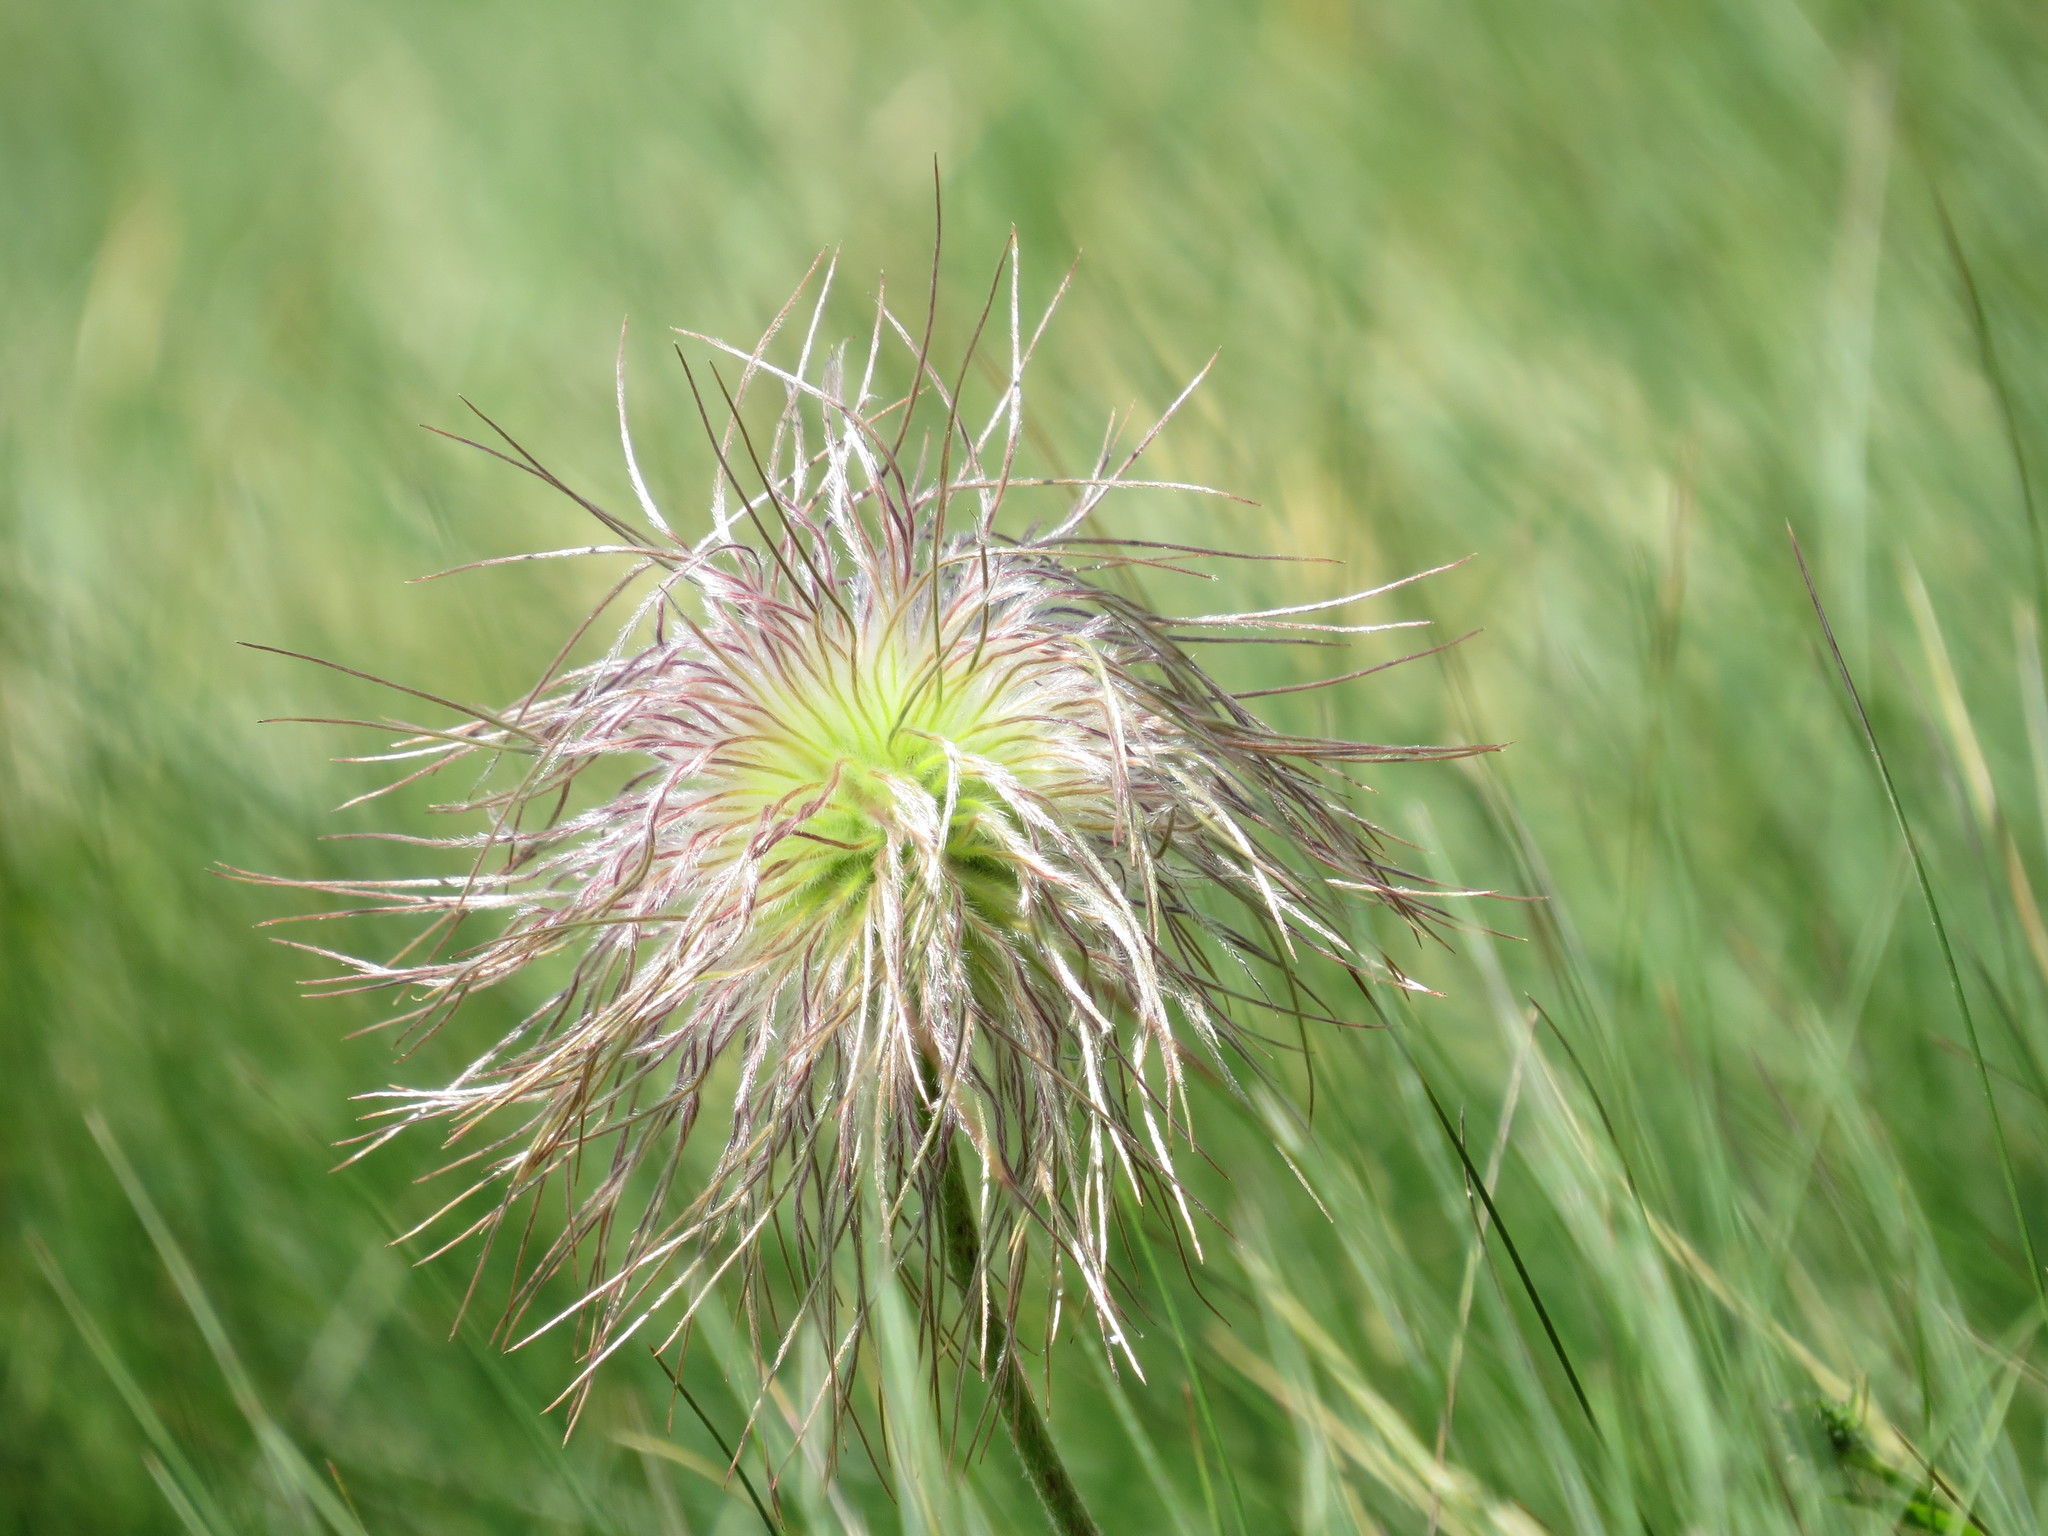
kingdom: Plantae
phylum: Tracheophyta
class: Magnoliopsida
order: Ranunculales
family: Ranunculaceae
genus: Pulsatilla
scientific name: Pulsatilla alpina
